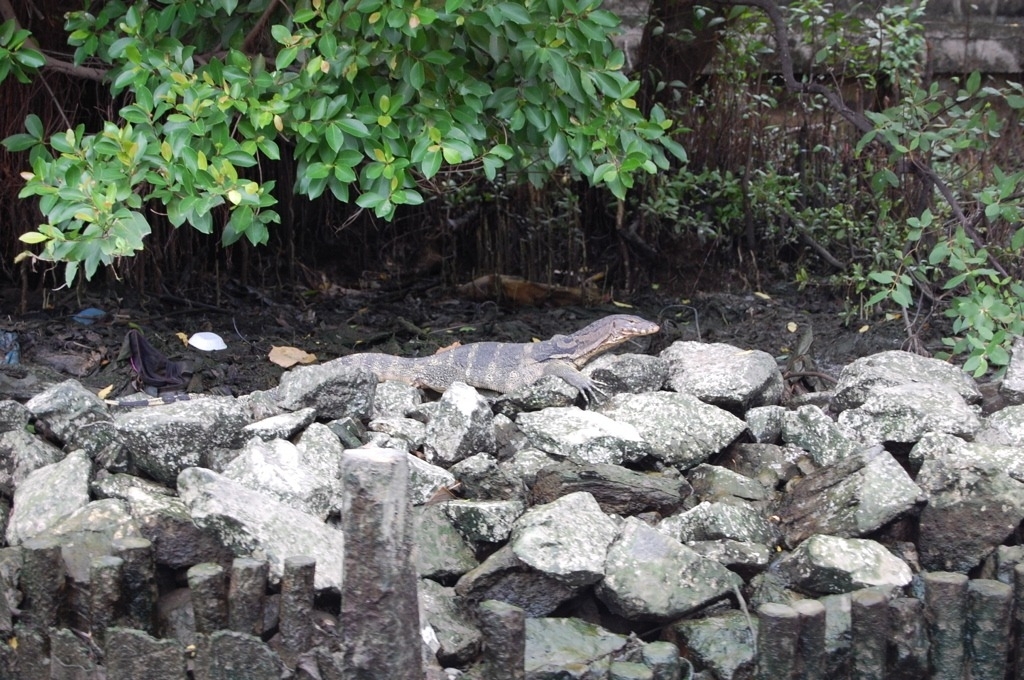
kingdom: Animalia
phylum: Chordata
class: Squamata
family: Varanidae
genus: Varanus
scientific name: Varanus salvator
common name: Common water monitor
